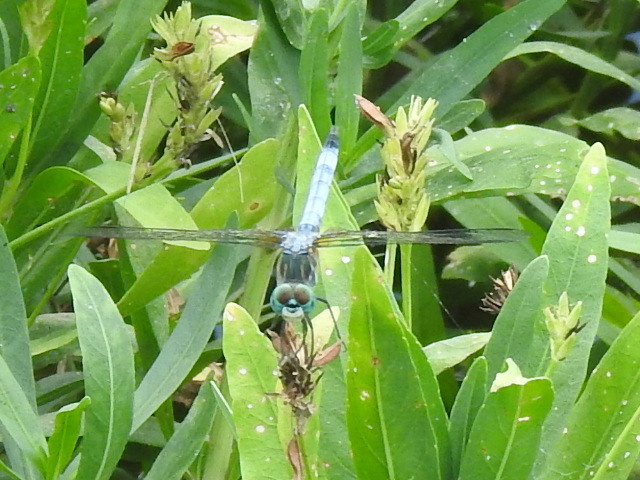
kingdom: Animalia
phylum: Arthropoda
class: Insecta
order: Odonata
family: Libellulidae
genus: Pachydiplax
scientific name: Pachydiplax longipennis
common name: Blue dasher
